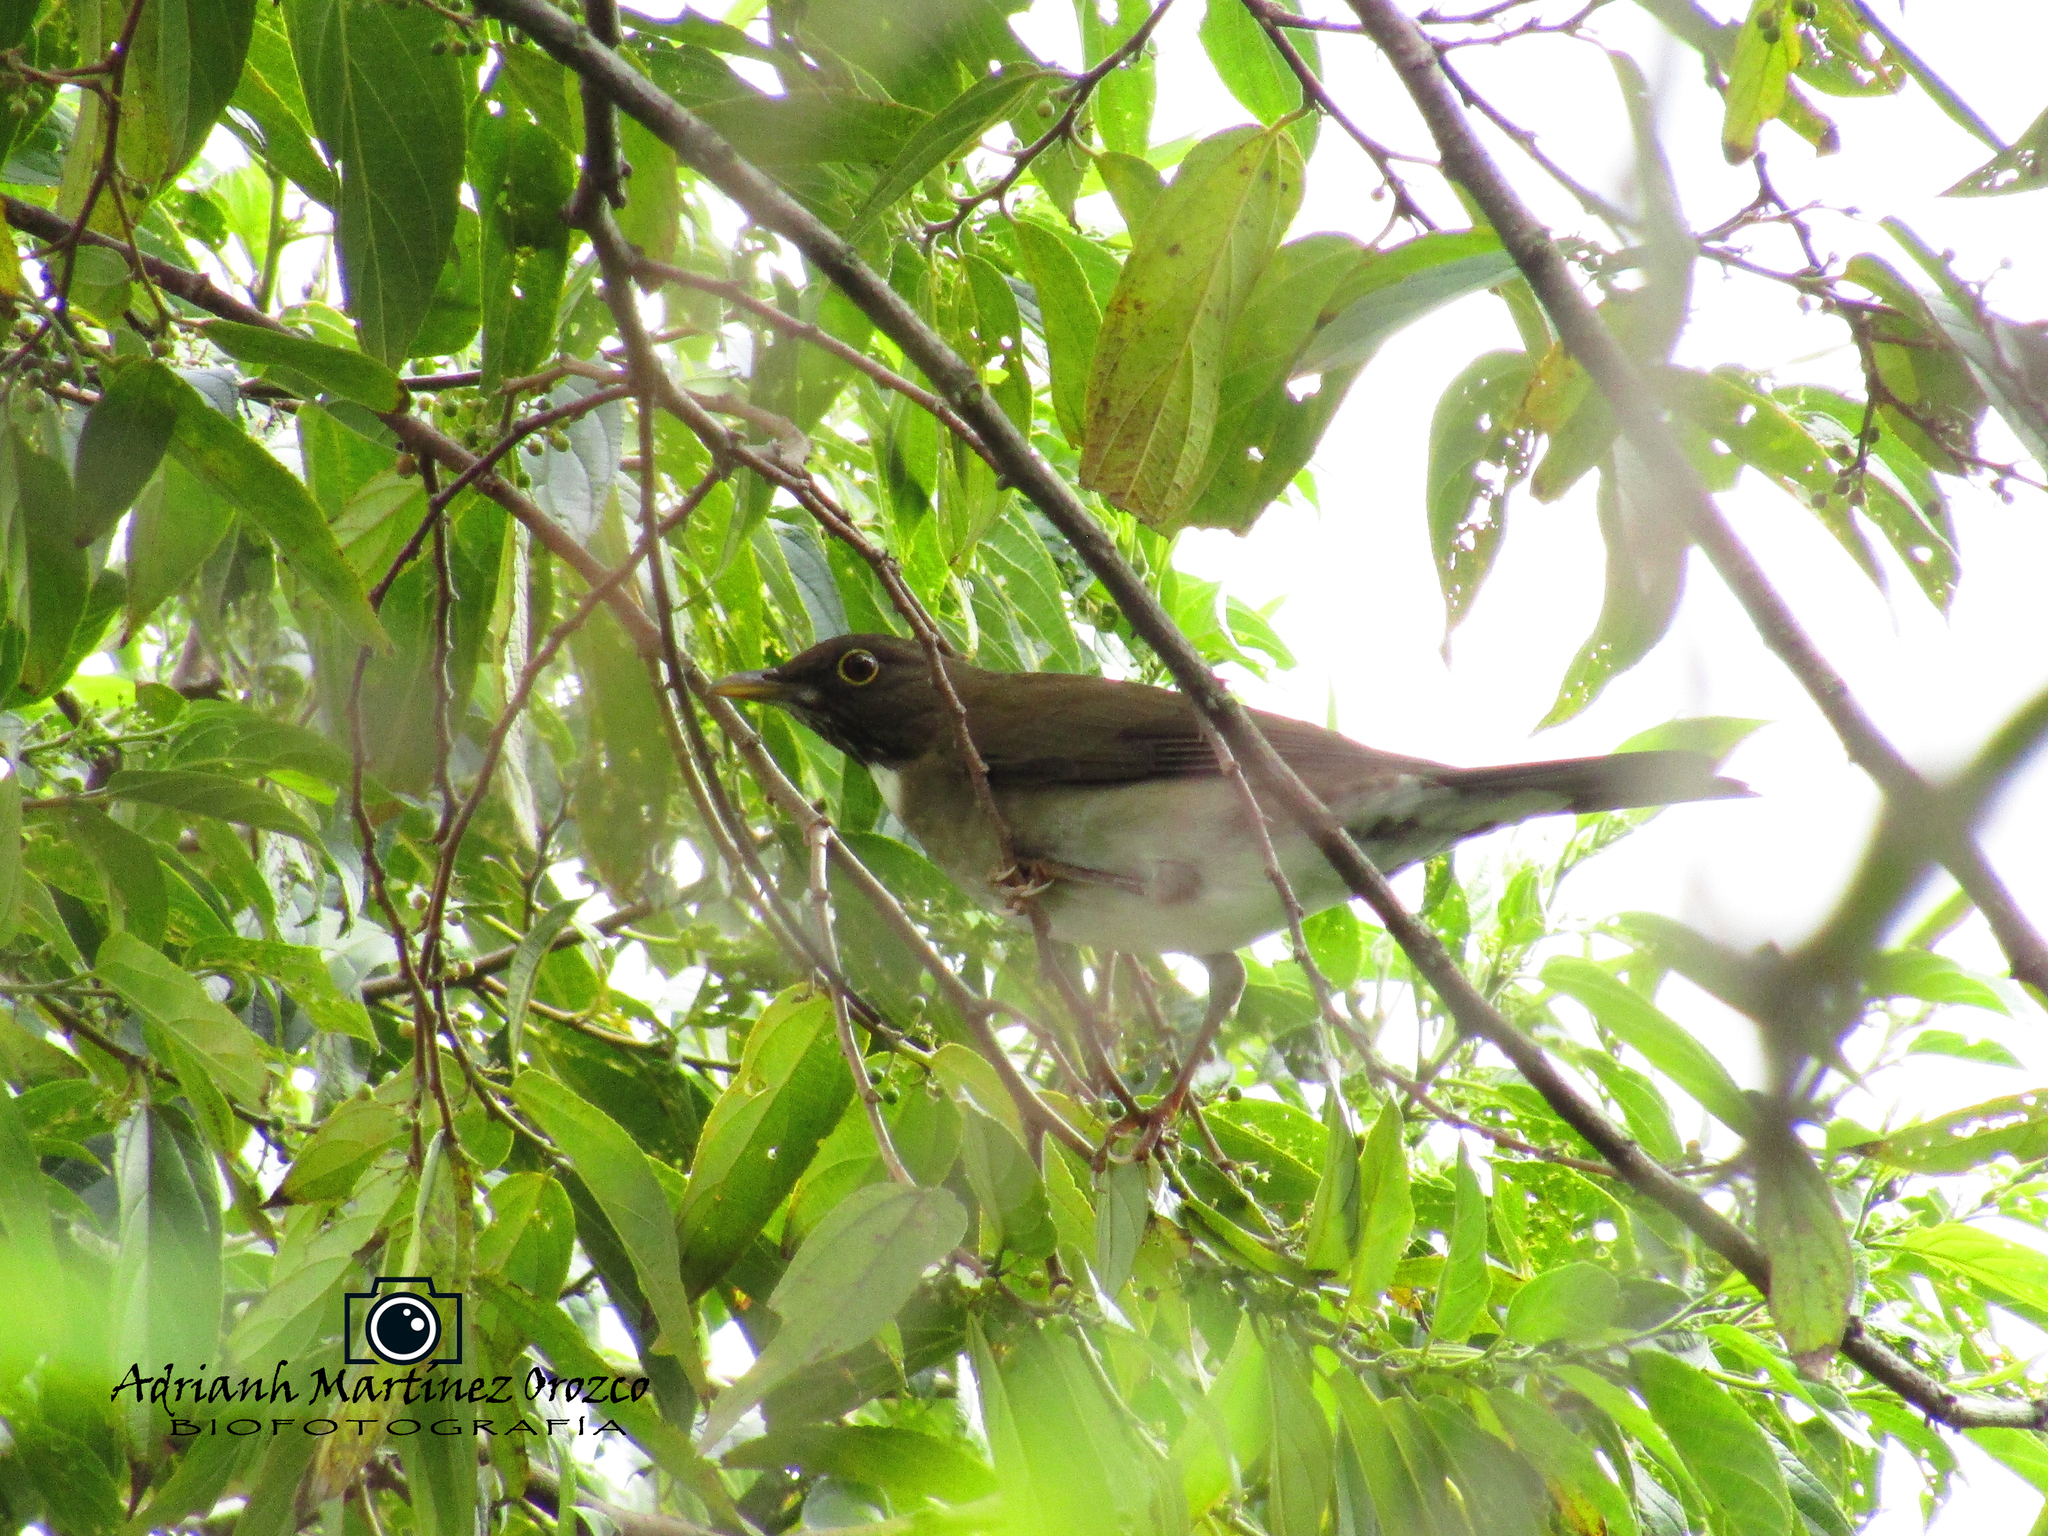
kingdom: Animalia
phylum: Chordata
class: Aves
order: Passeriformes
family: Turdidae
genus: Turdus
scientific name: Turdus assimilis
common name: White-throated thrush
